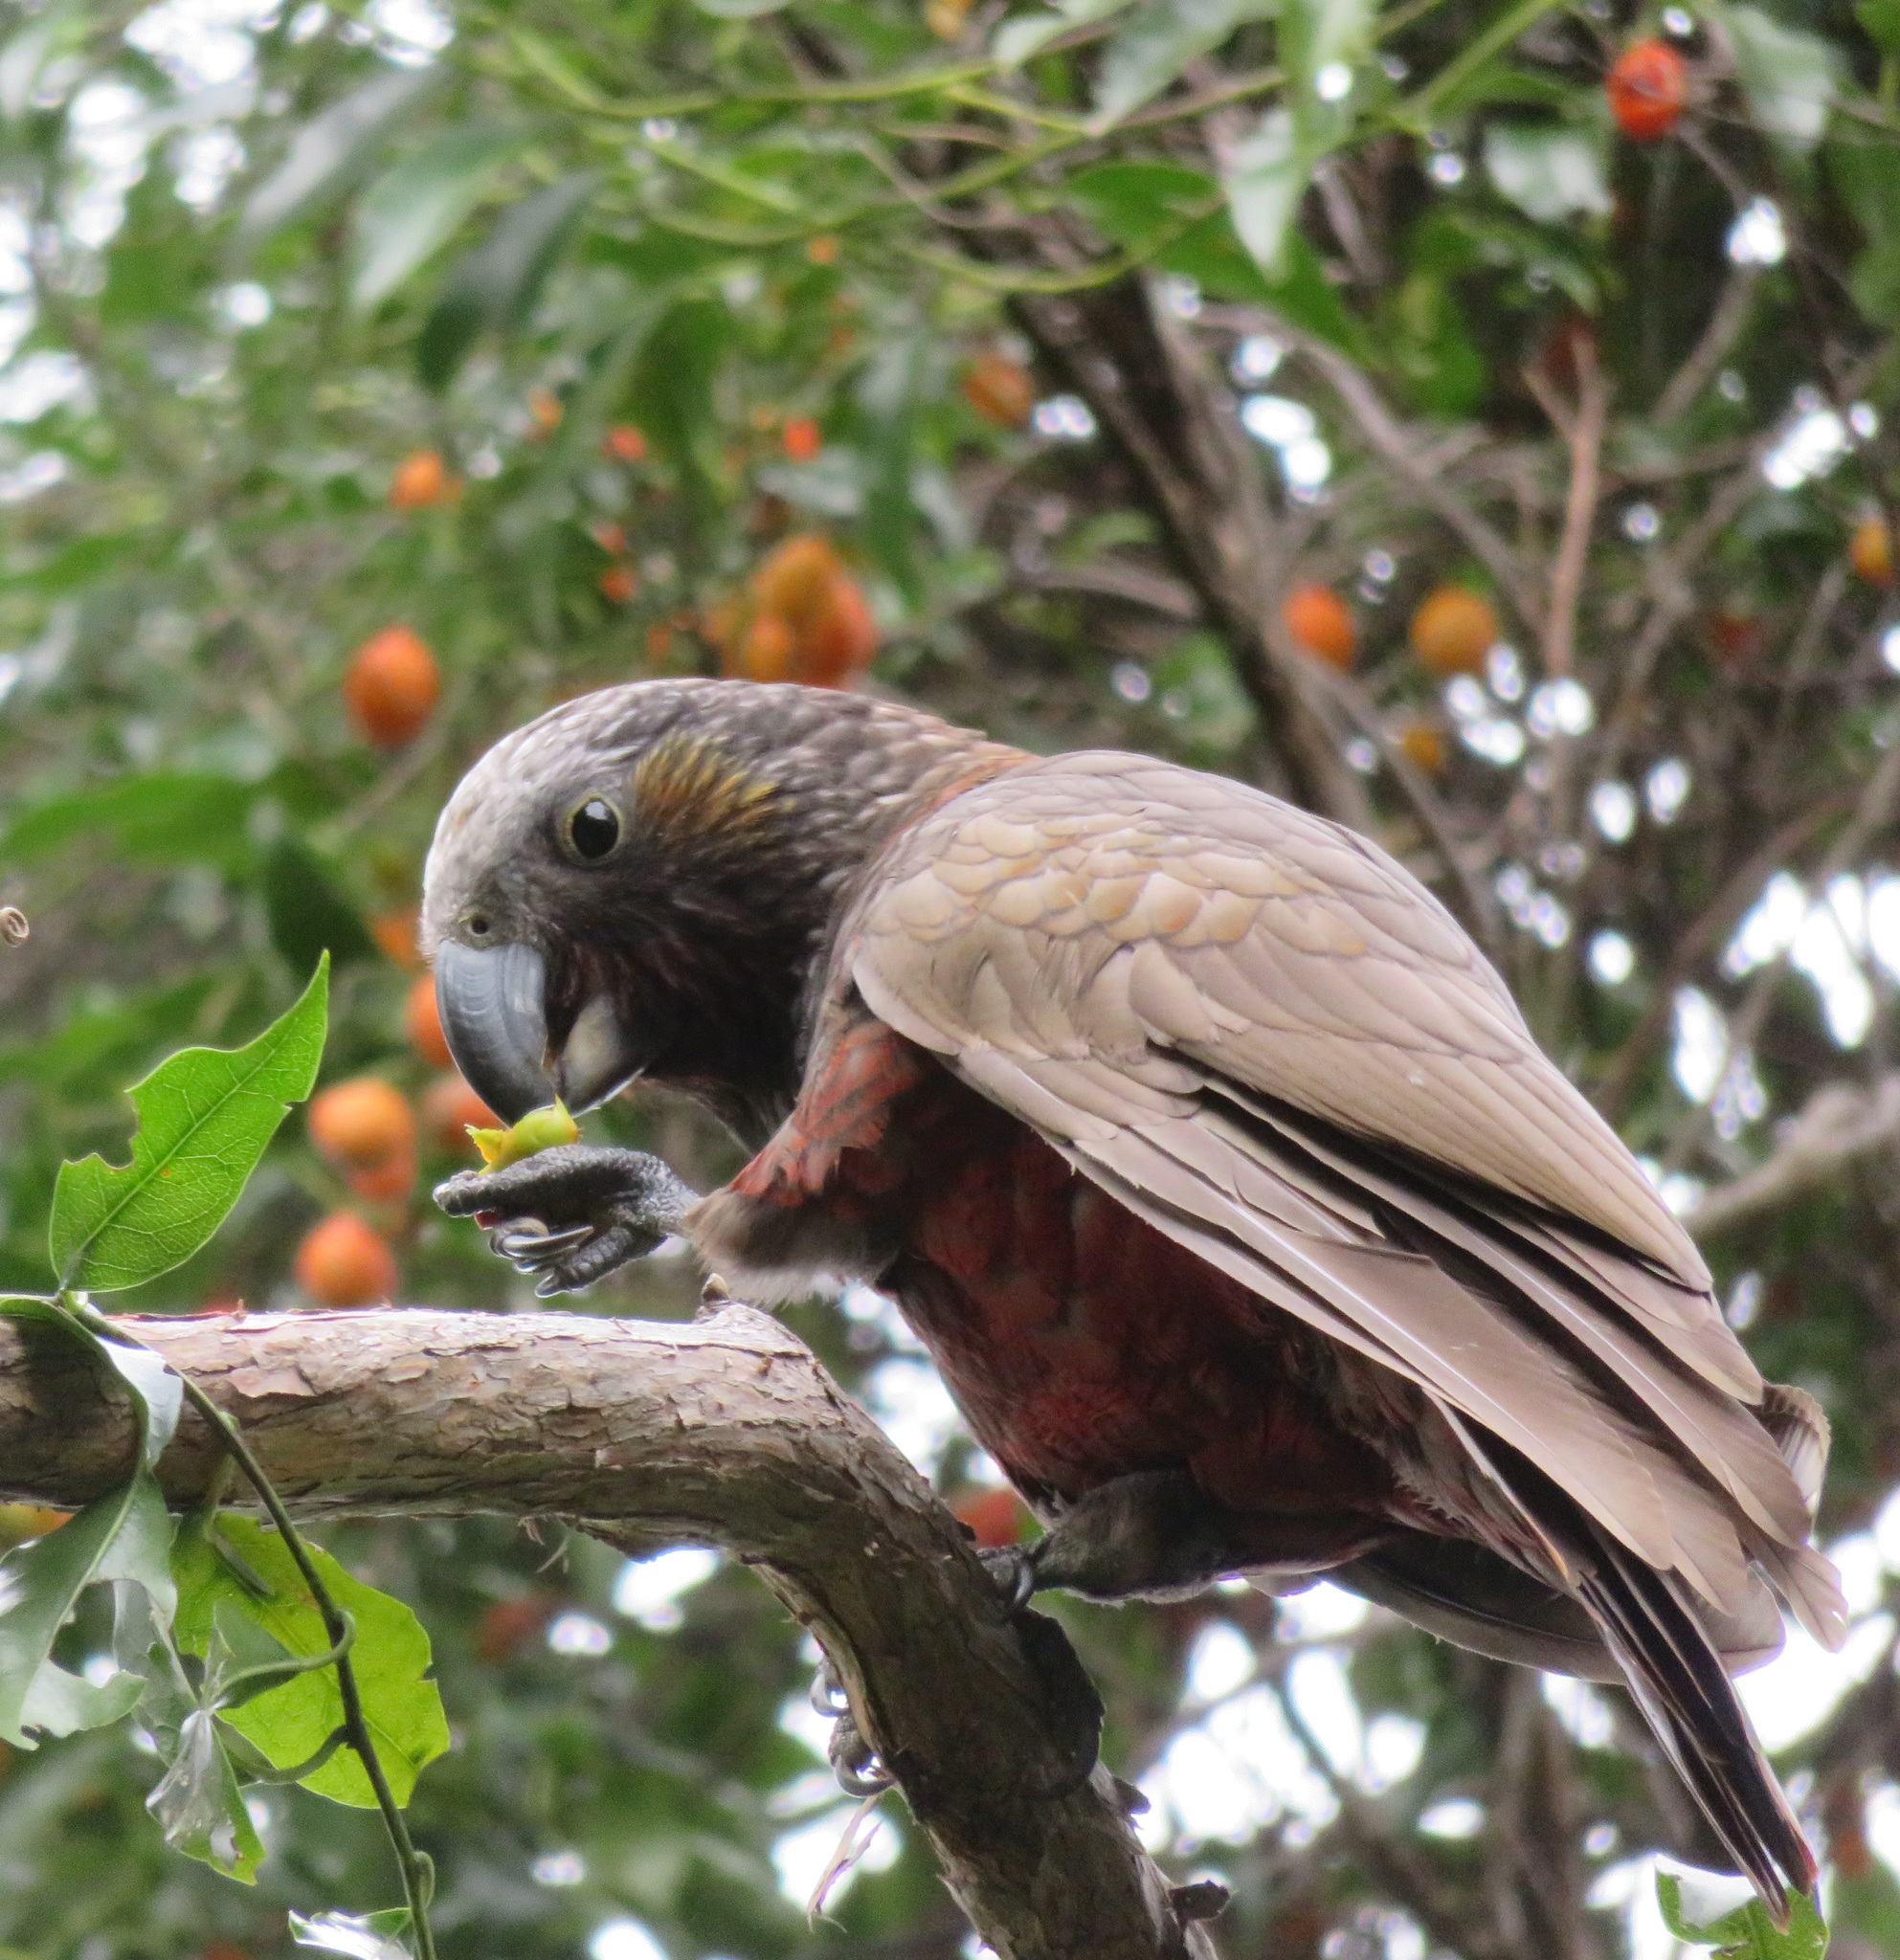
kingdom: Animalia
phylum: Chordata
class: Aves
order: Psittaciformes
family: Psittacidae
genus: Nestor
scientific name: Nestor meridionalis
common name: New zealand kaka
